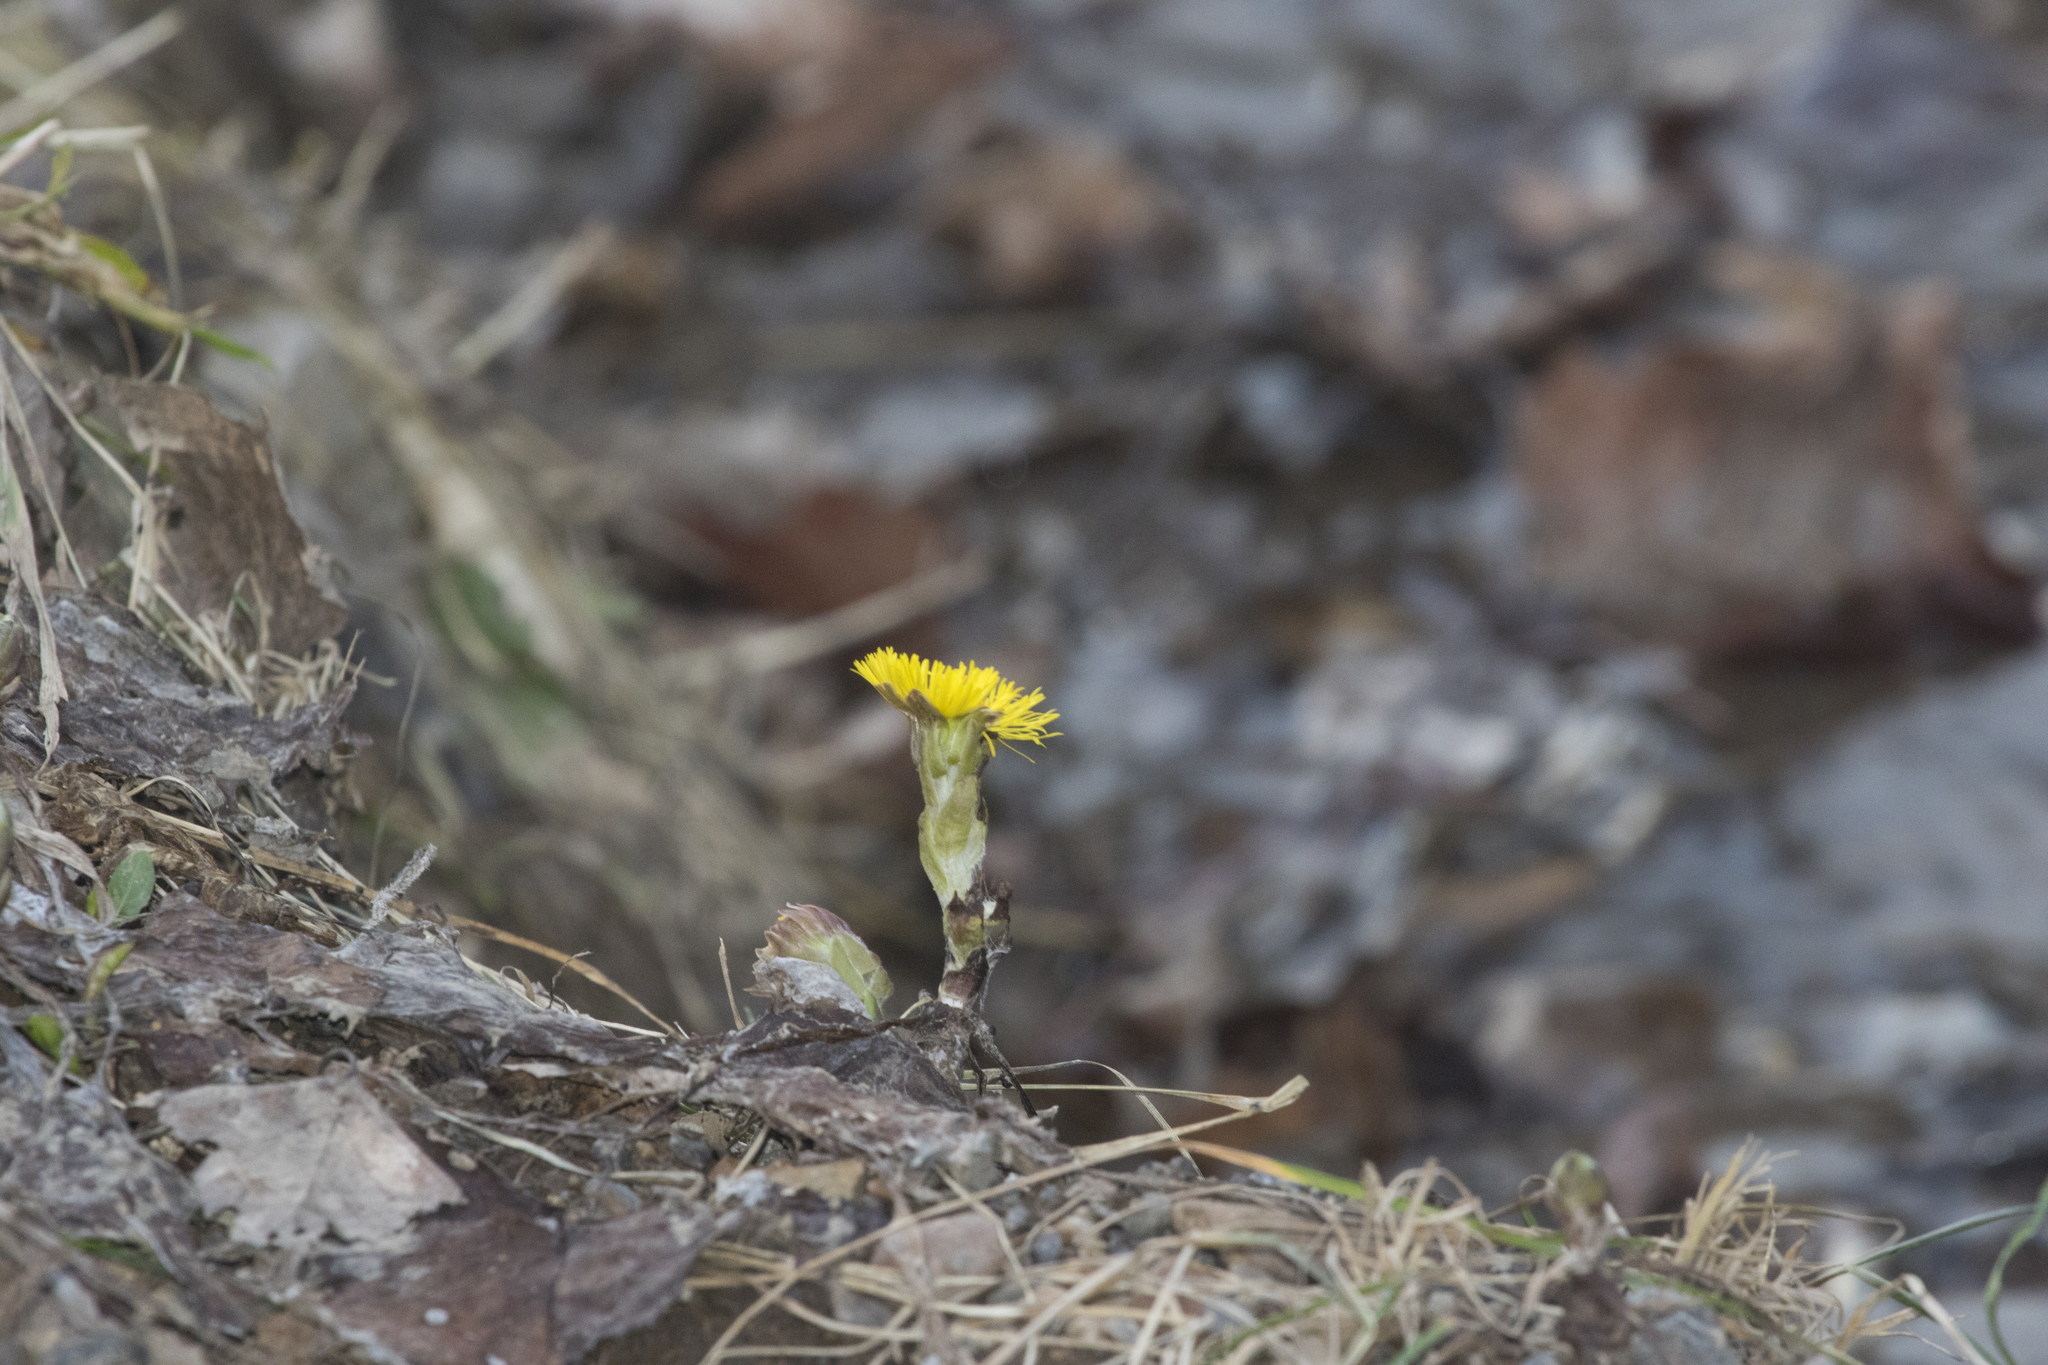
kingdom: Plantae
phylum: Tracheophyta
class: Magnoliopsida
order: Asterales
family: Asteraceae
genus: Tussilago
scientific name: Tussilago farfara
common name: Coltsfoot
